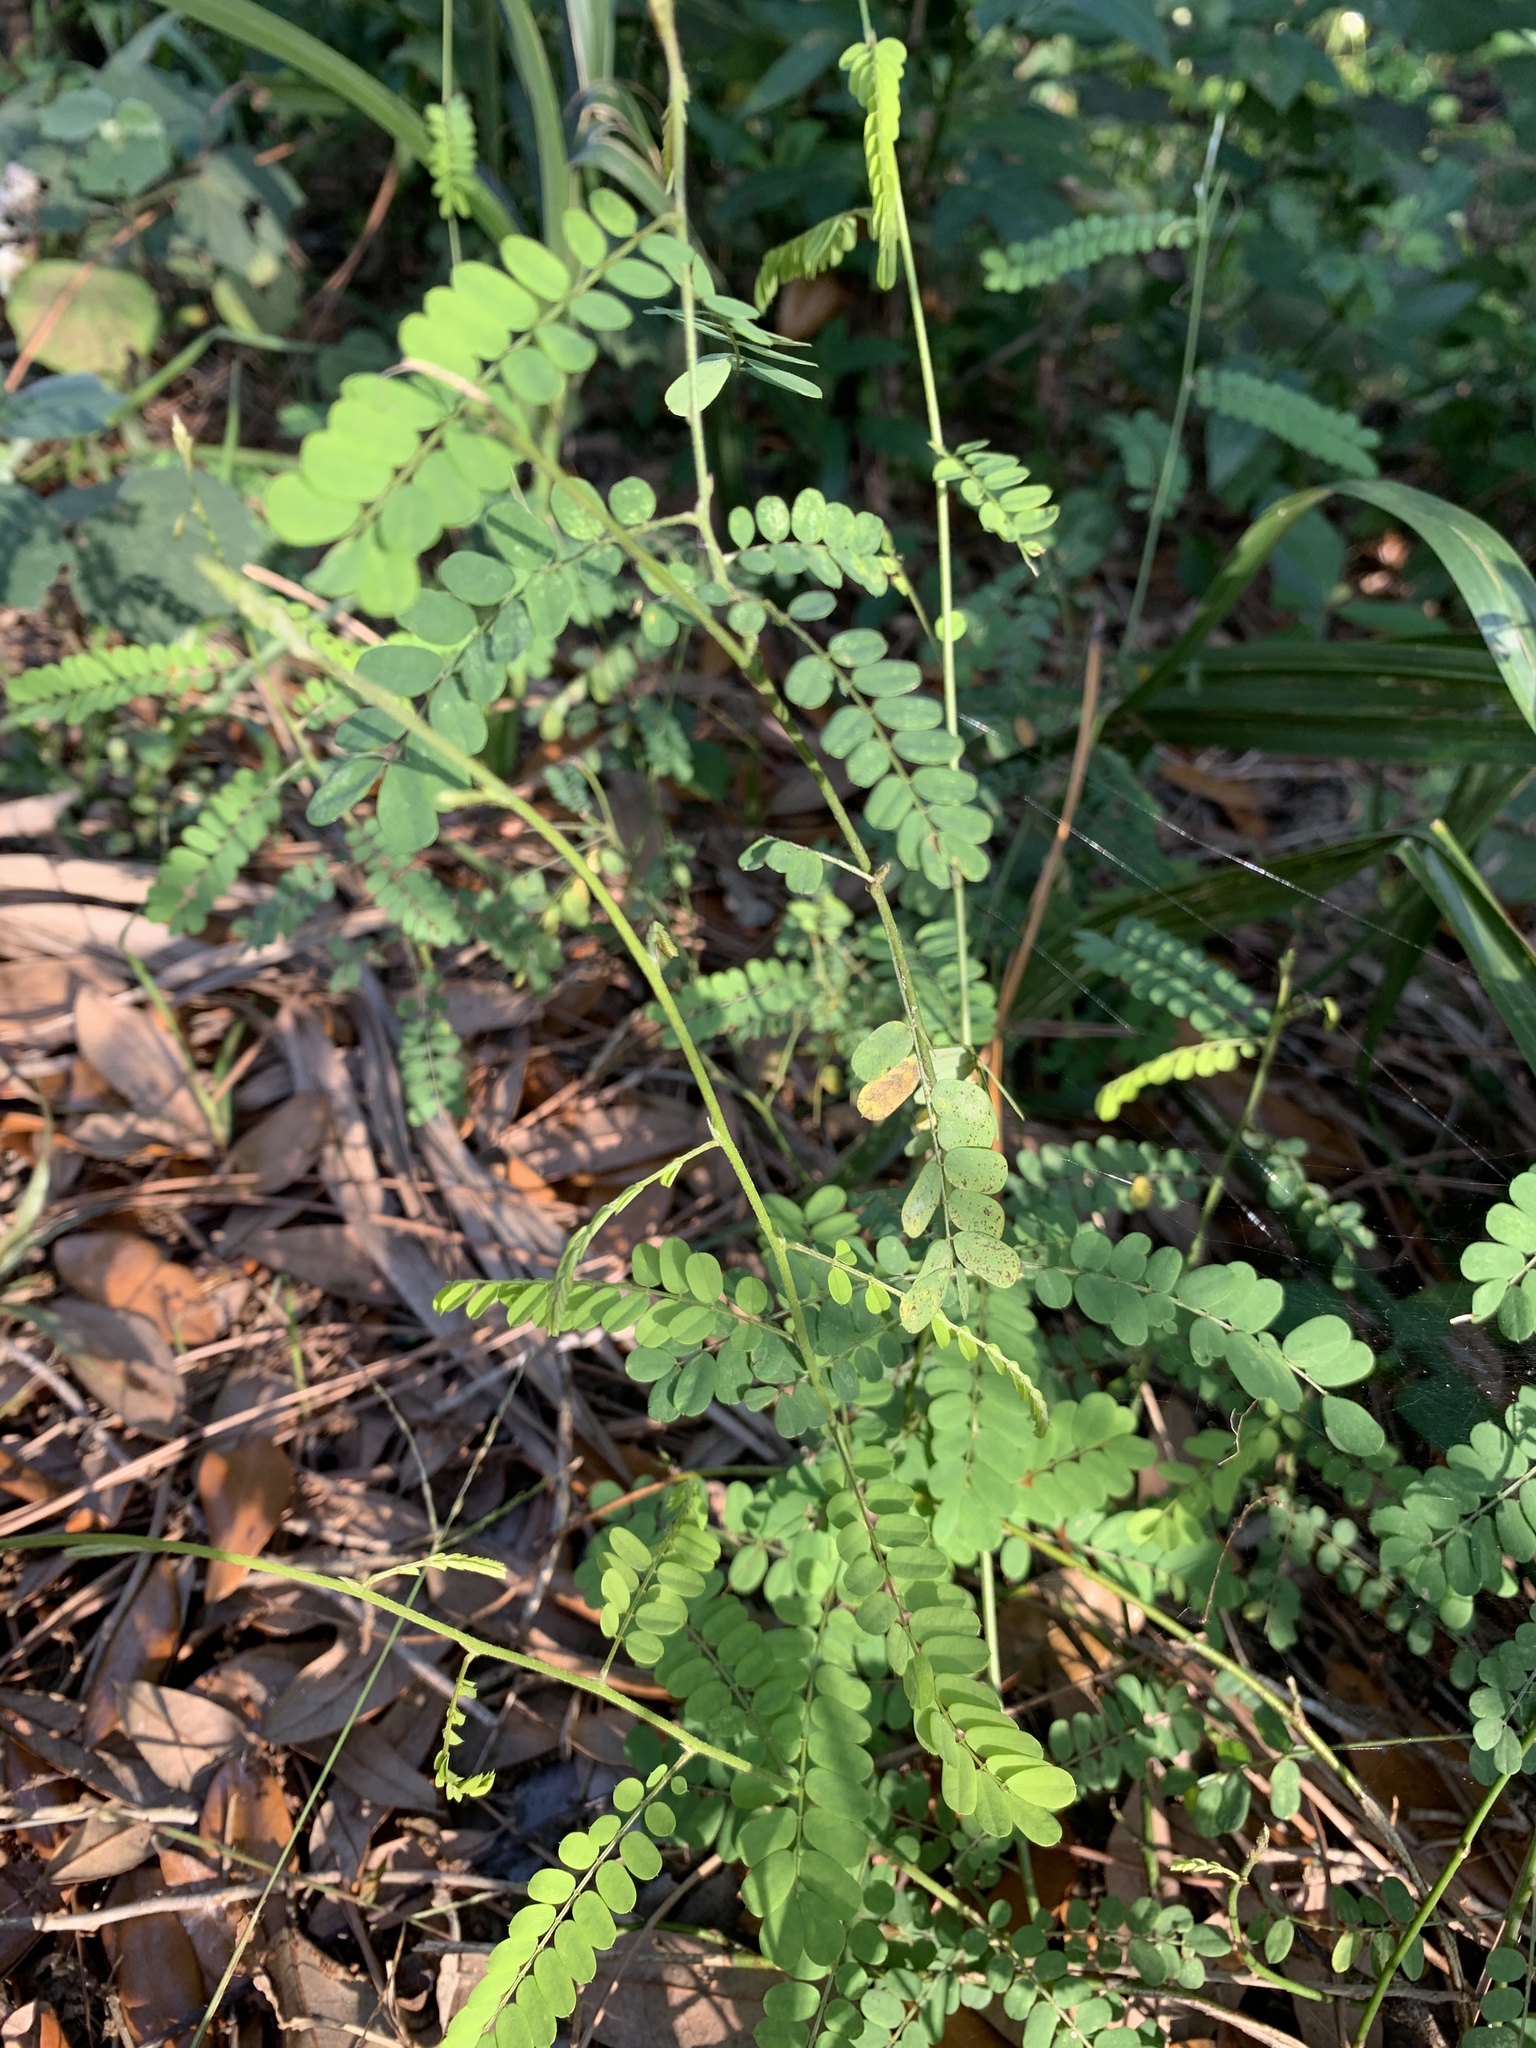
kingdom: Plantae
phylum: Tracheophyta
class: Magnoliopsida
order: Fabales
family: Fabaceae
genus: Abrus
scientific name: Abrus precatorius
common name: Rosarypea
